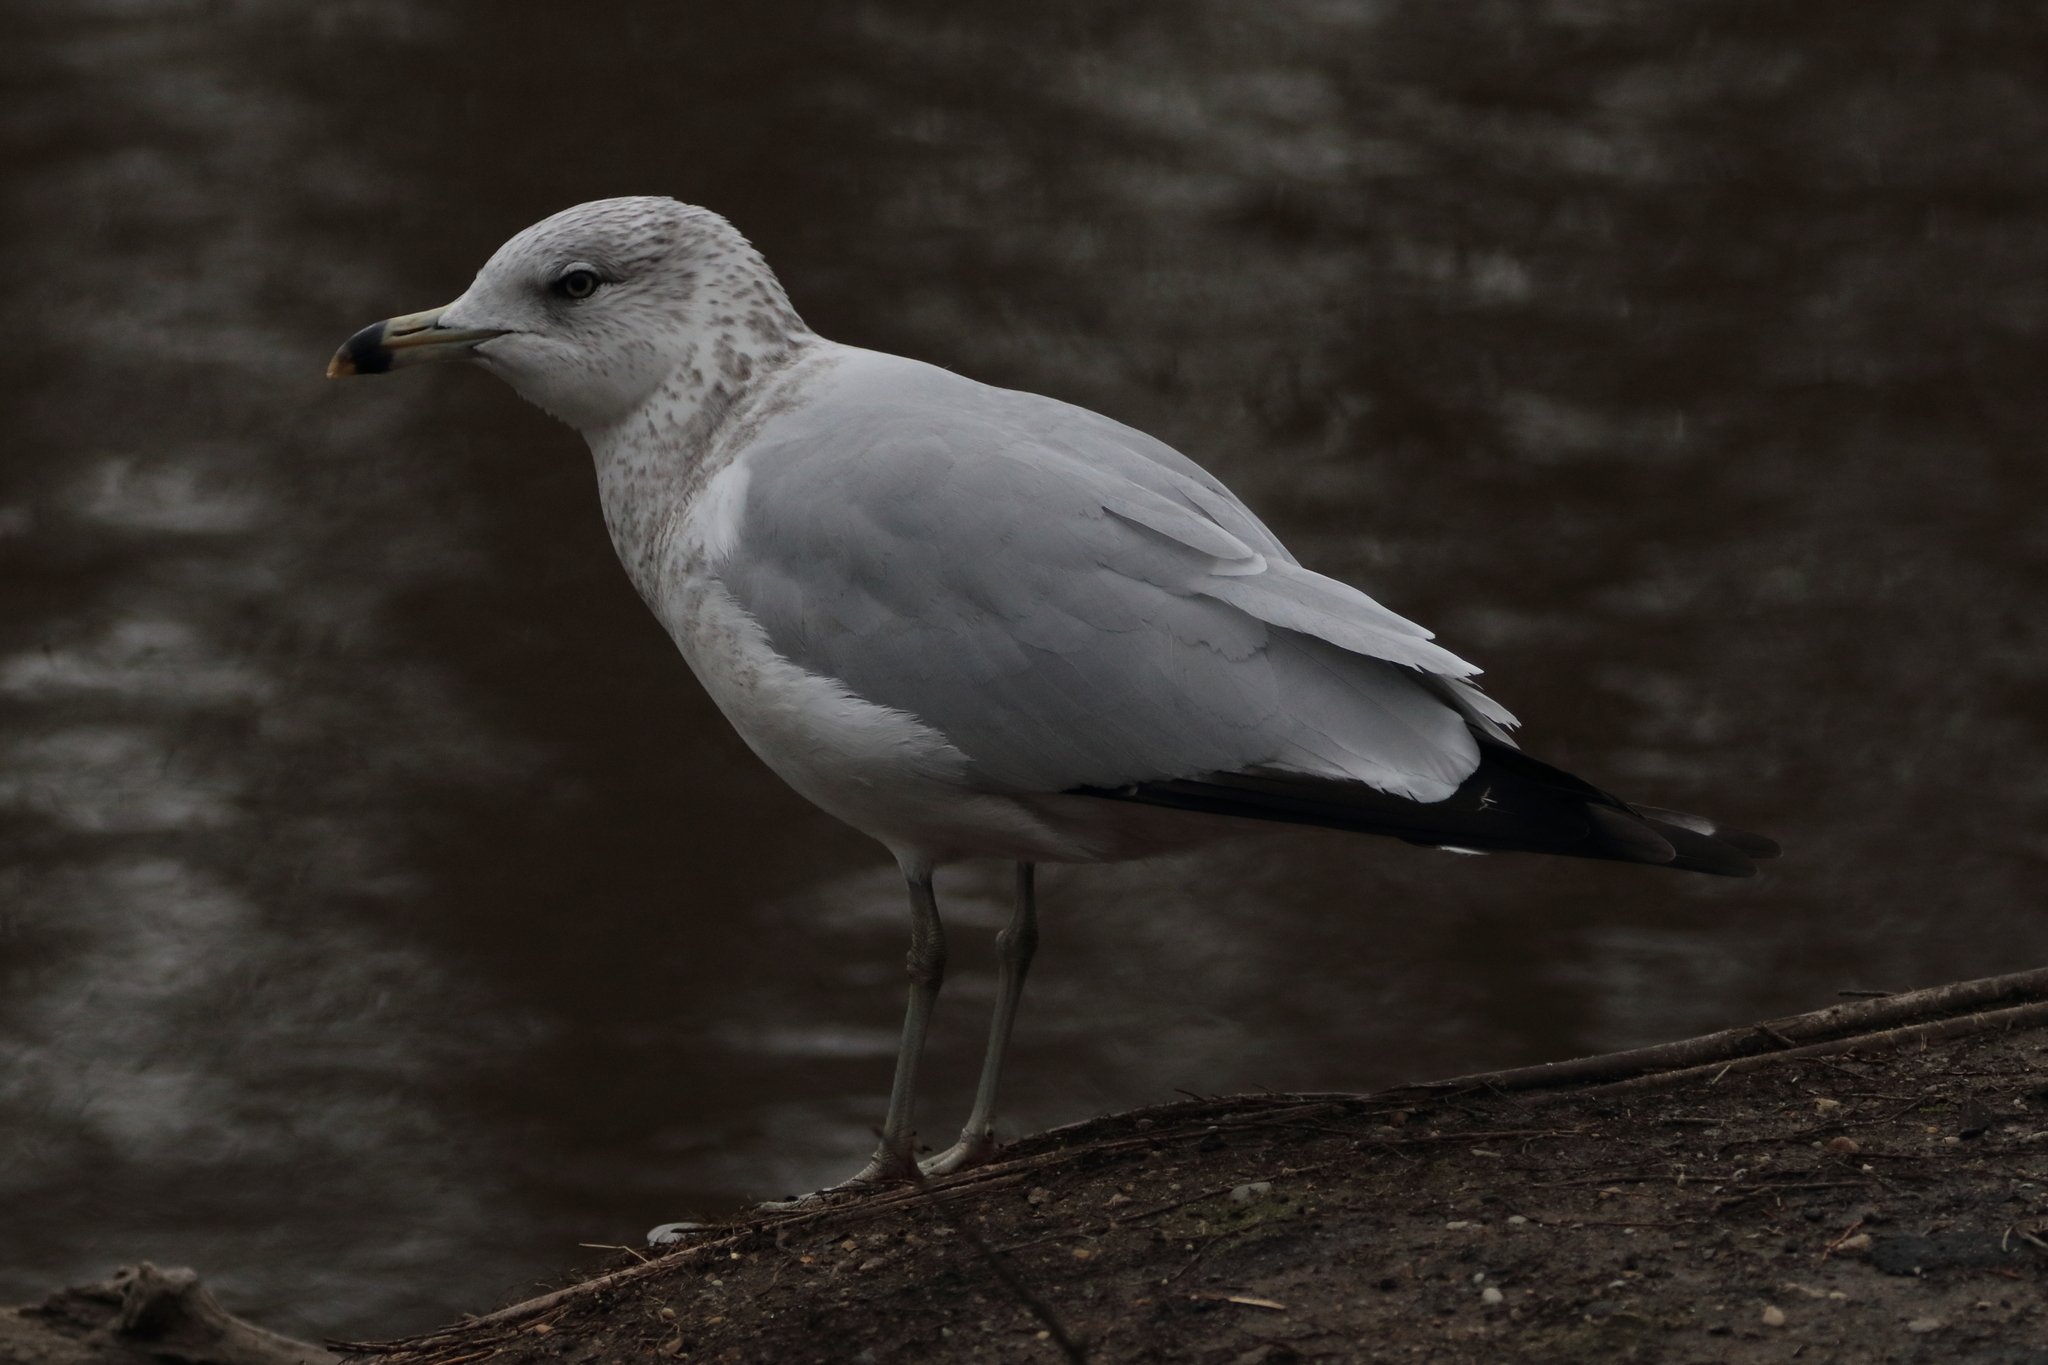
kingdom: Animalia
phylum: Chordata
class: Aves
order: Charadriiformes
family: Laridae
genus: Larus
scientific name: Larus delawarensis
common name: Ring-billed gull
